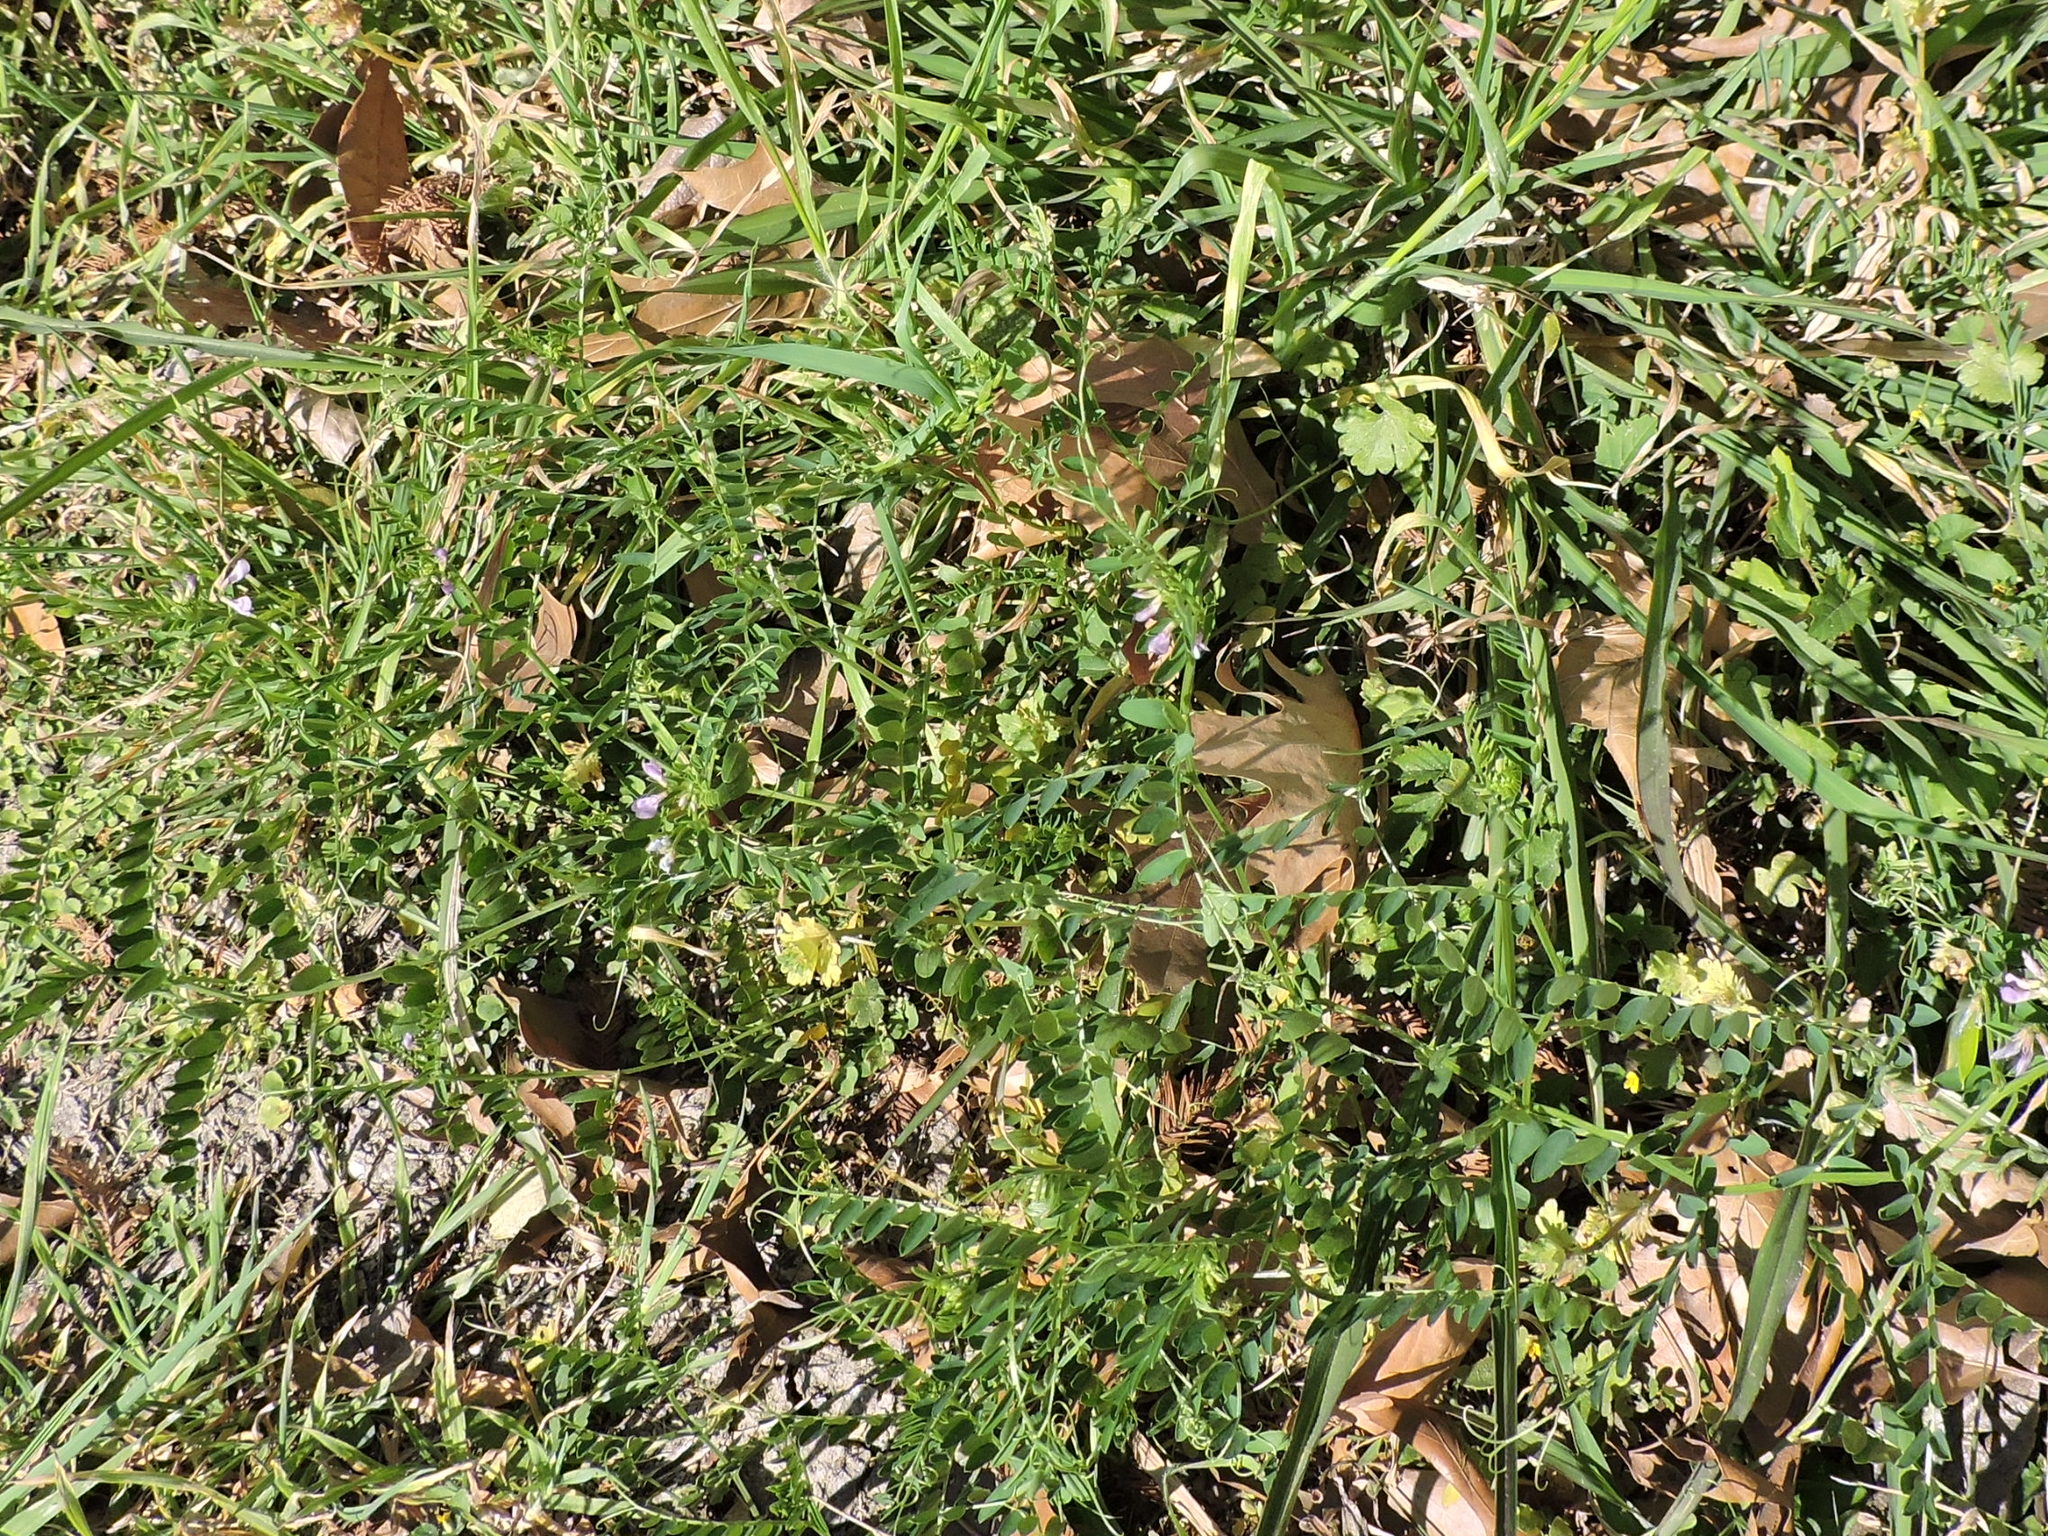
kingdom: Plantae
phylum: Tracheophyta
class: Magnoliopsida
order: Fabales
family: Fabaceae
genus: Vicia
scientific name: Vicia ludoviciana
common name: Louisiana vetch
